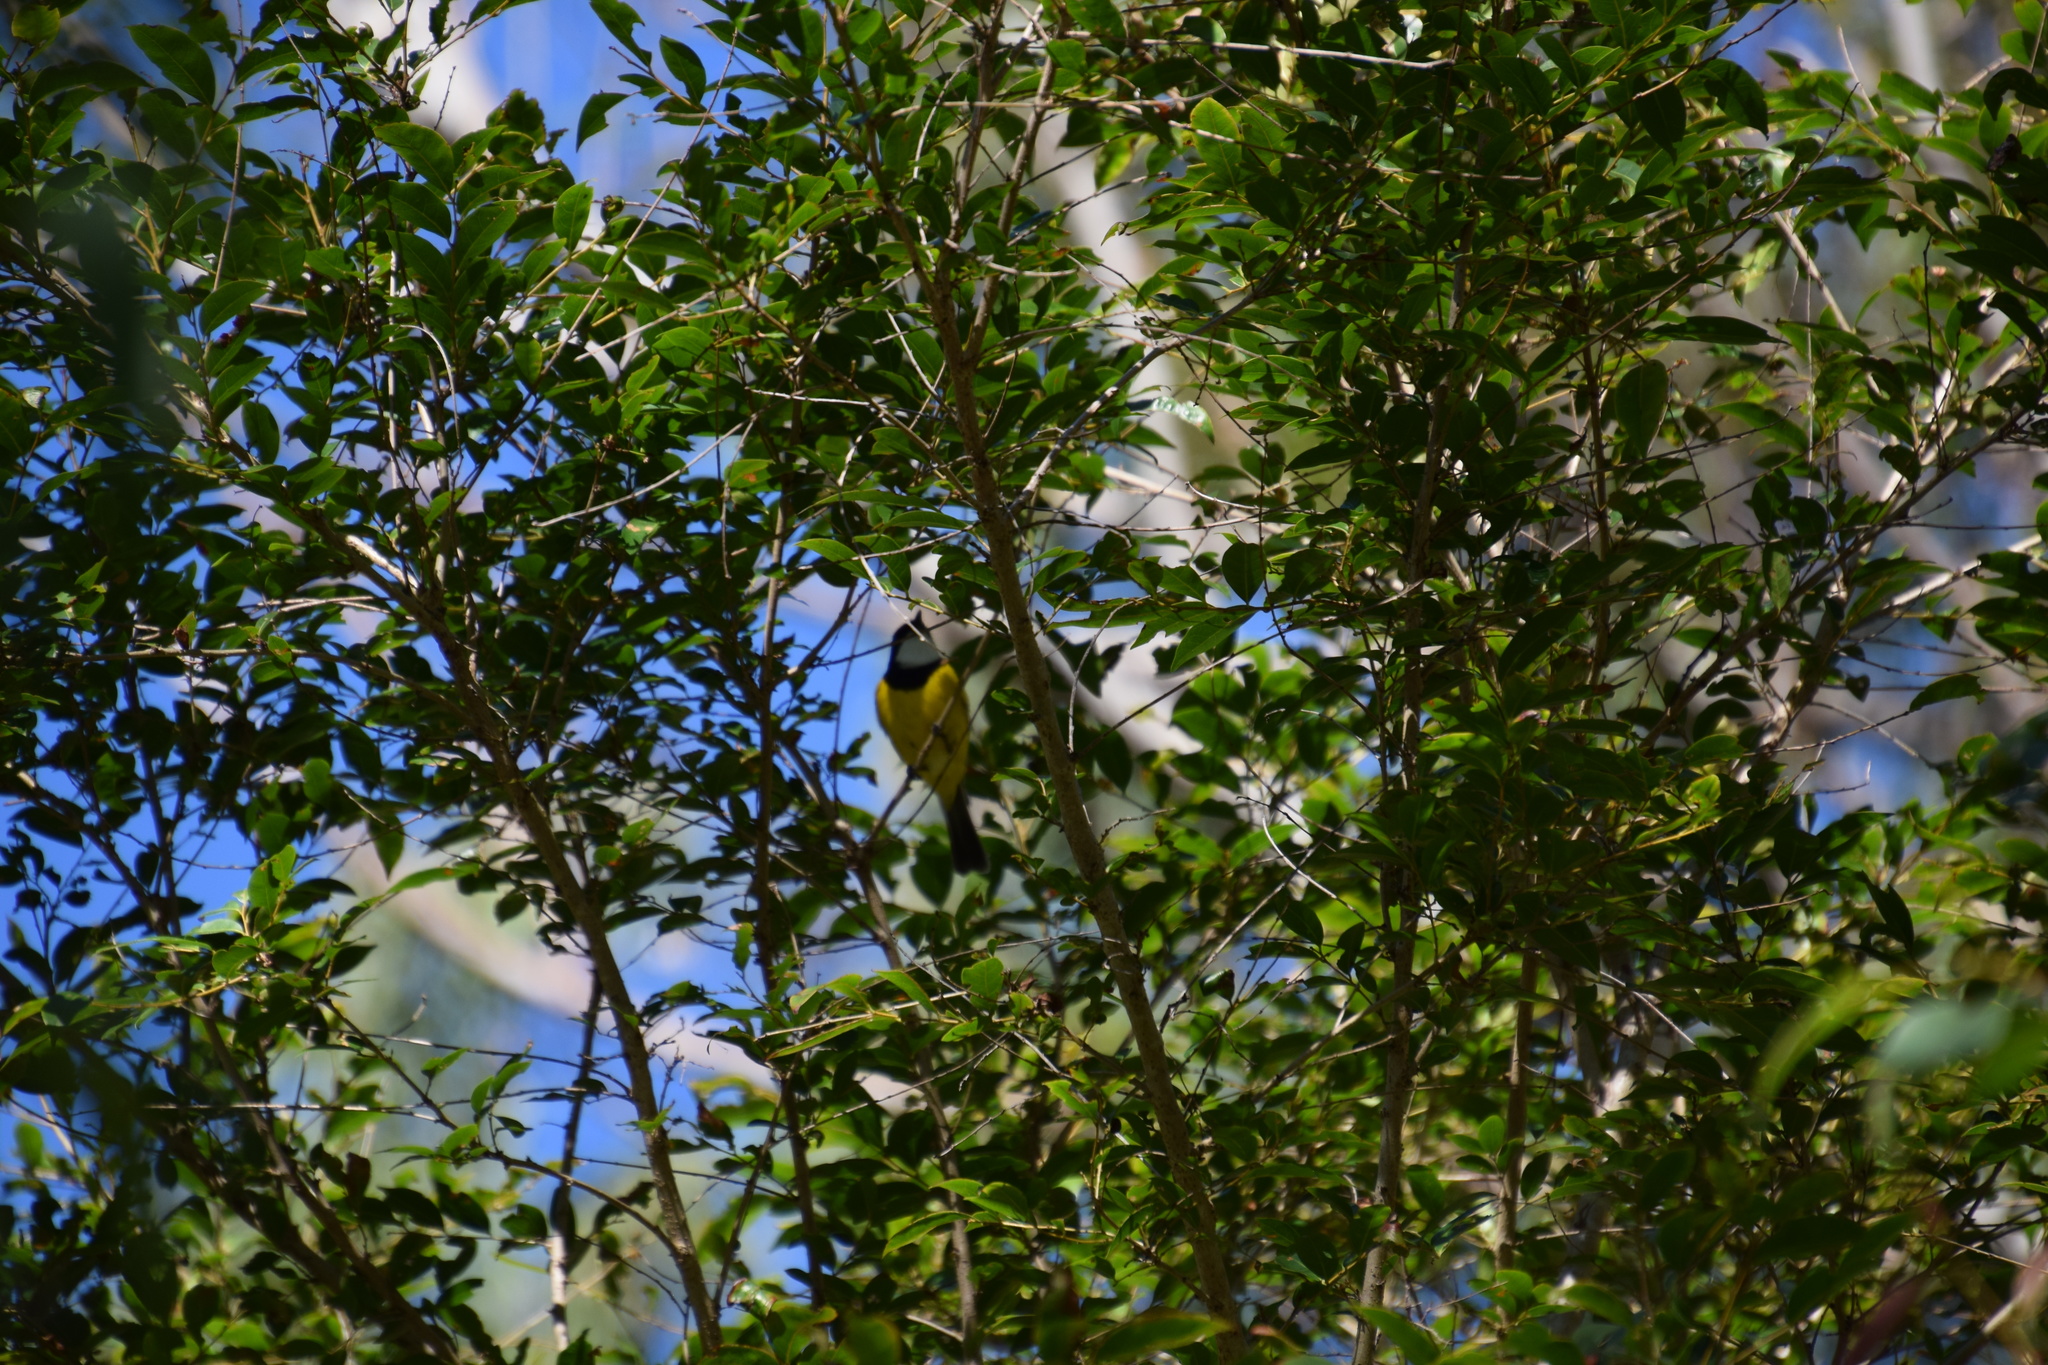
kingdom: Animalia
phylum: Chordata
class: Aves
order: Passeriformes
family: Pachycephalidae
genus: Pachycephala
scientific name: Pachycephala pectoralis
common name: Australian golden whistler
